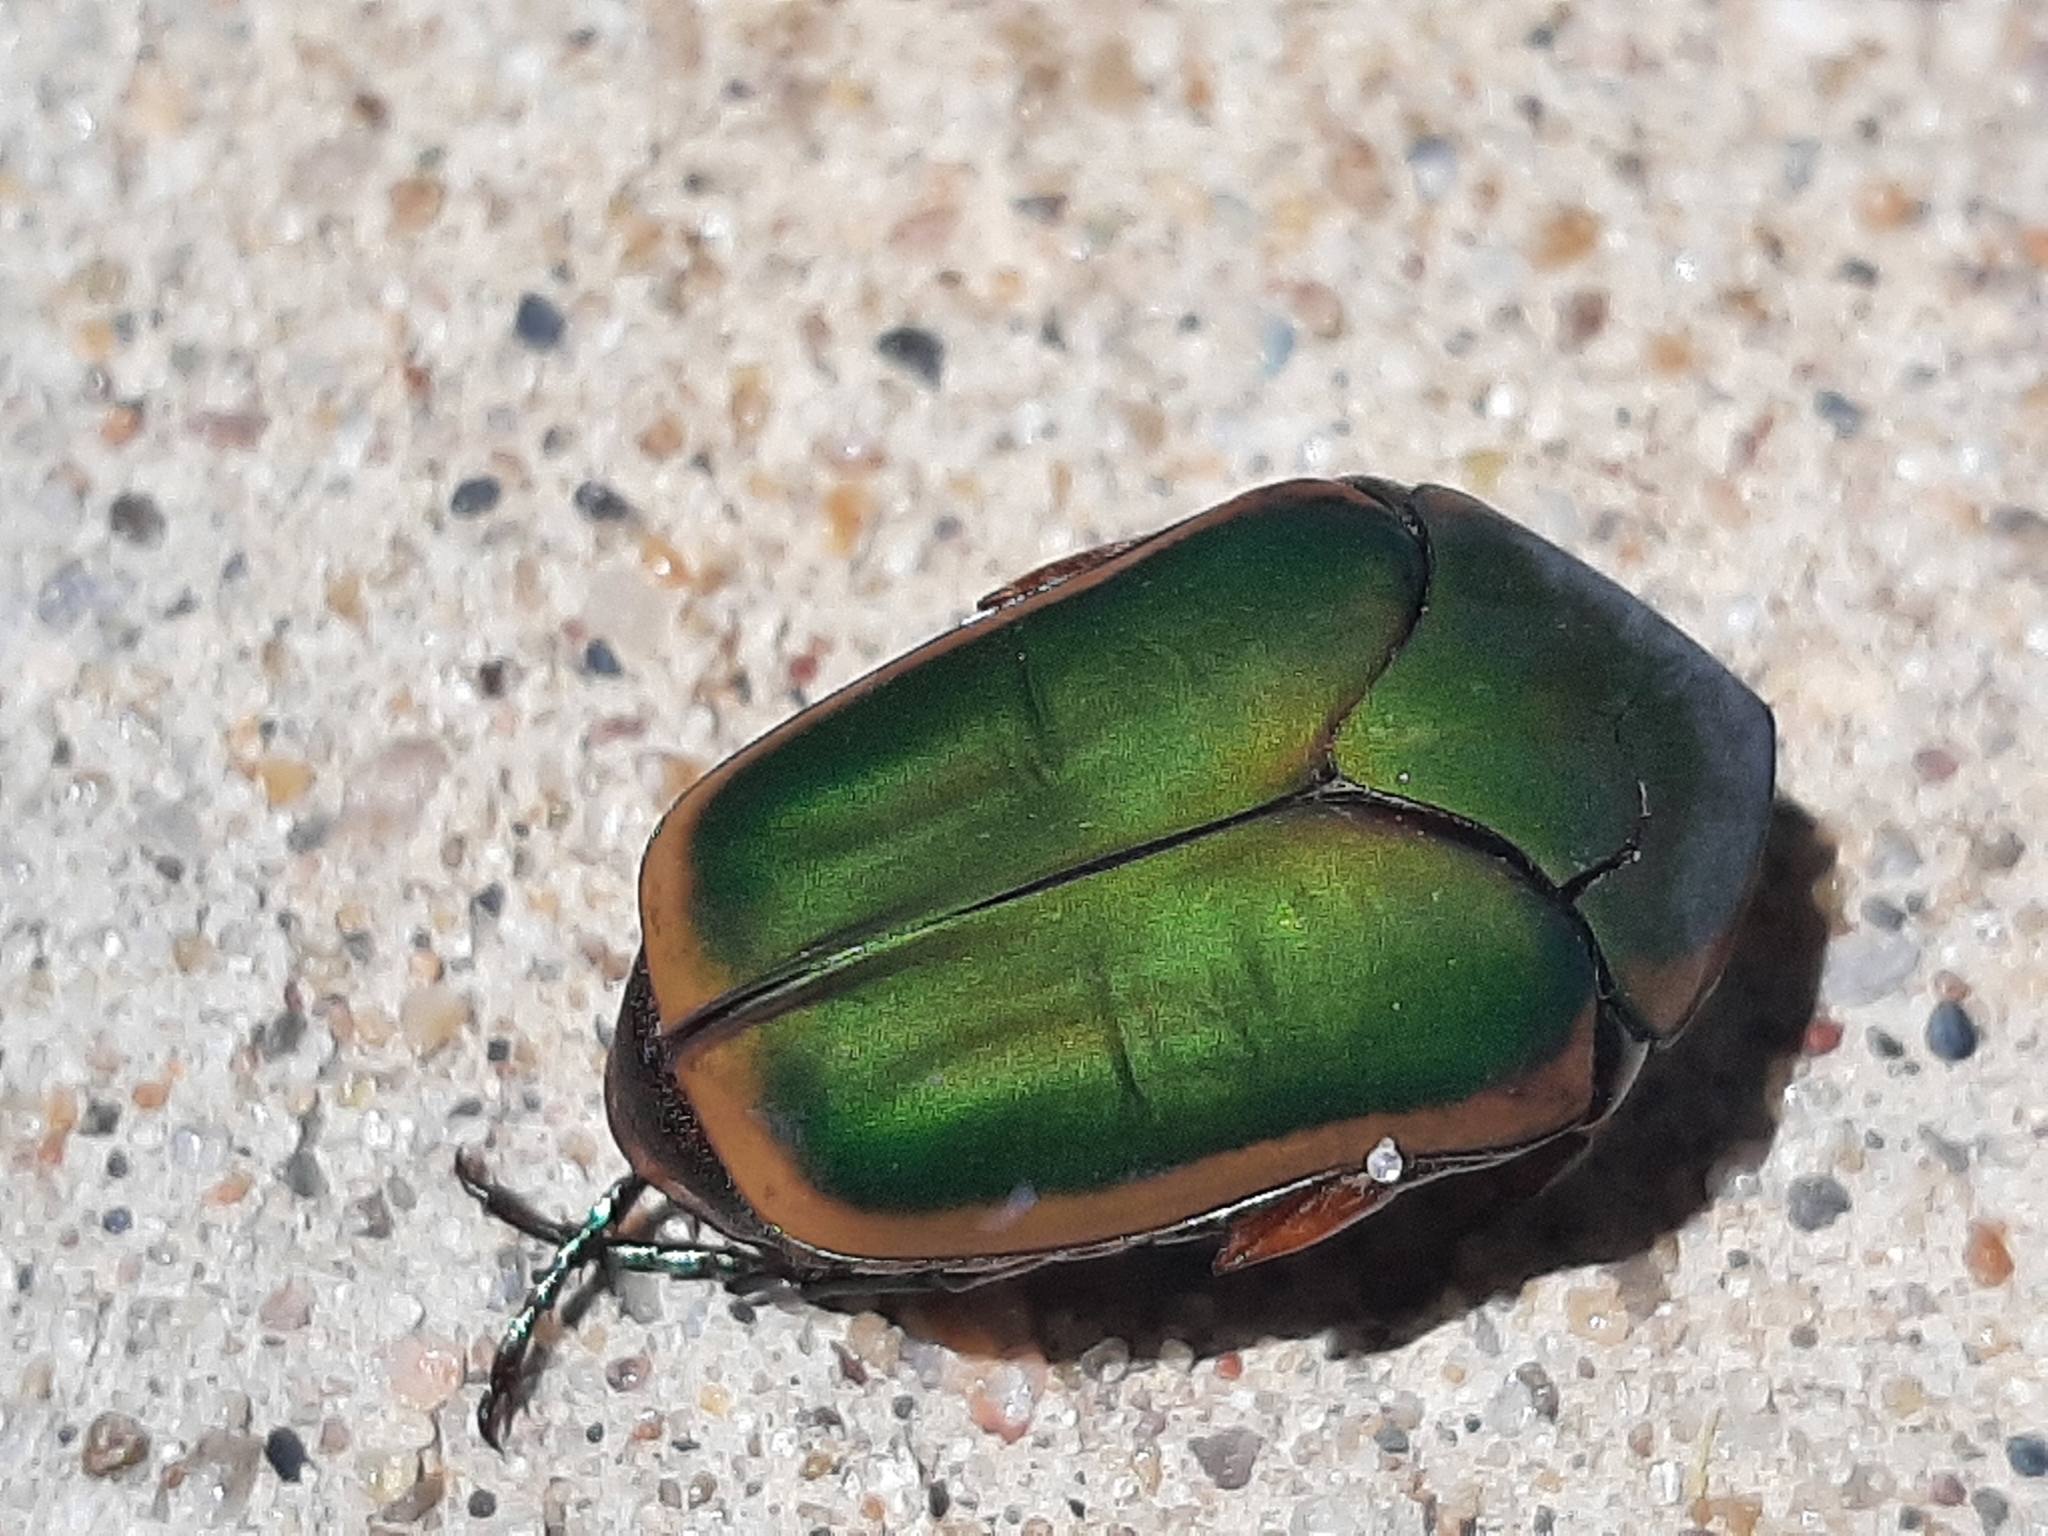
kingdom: Animalia
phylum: Arthropoda
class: Insecta
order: Coleoptera
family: Scarabaeidae
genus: Cotinis
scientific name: Cotinis nitida
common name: Common green june beetle
